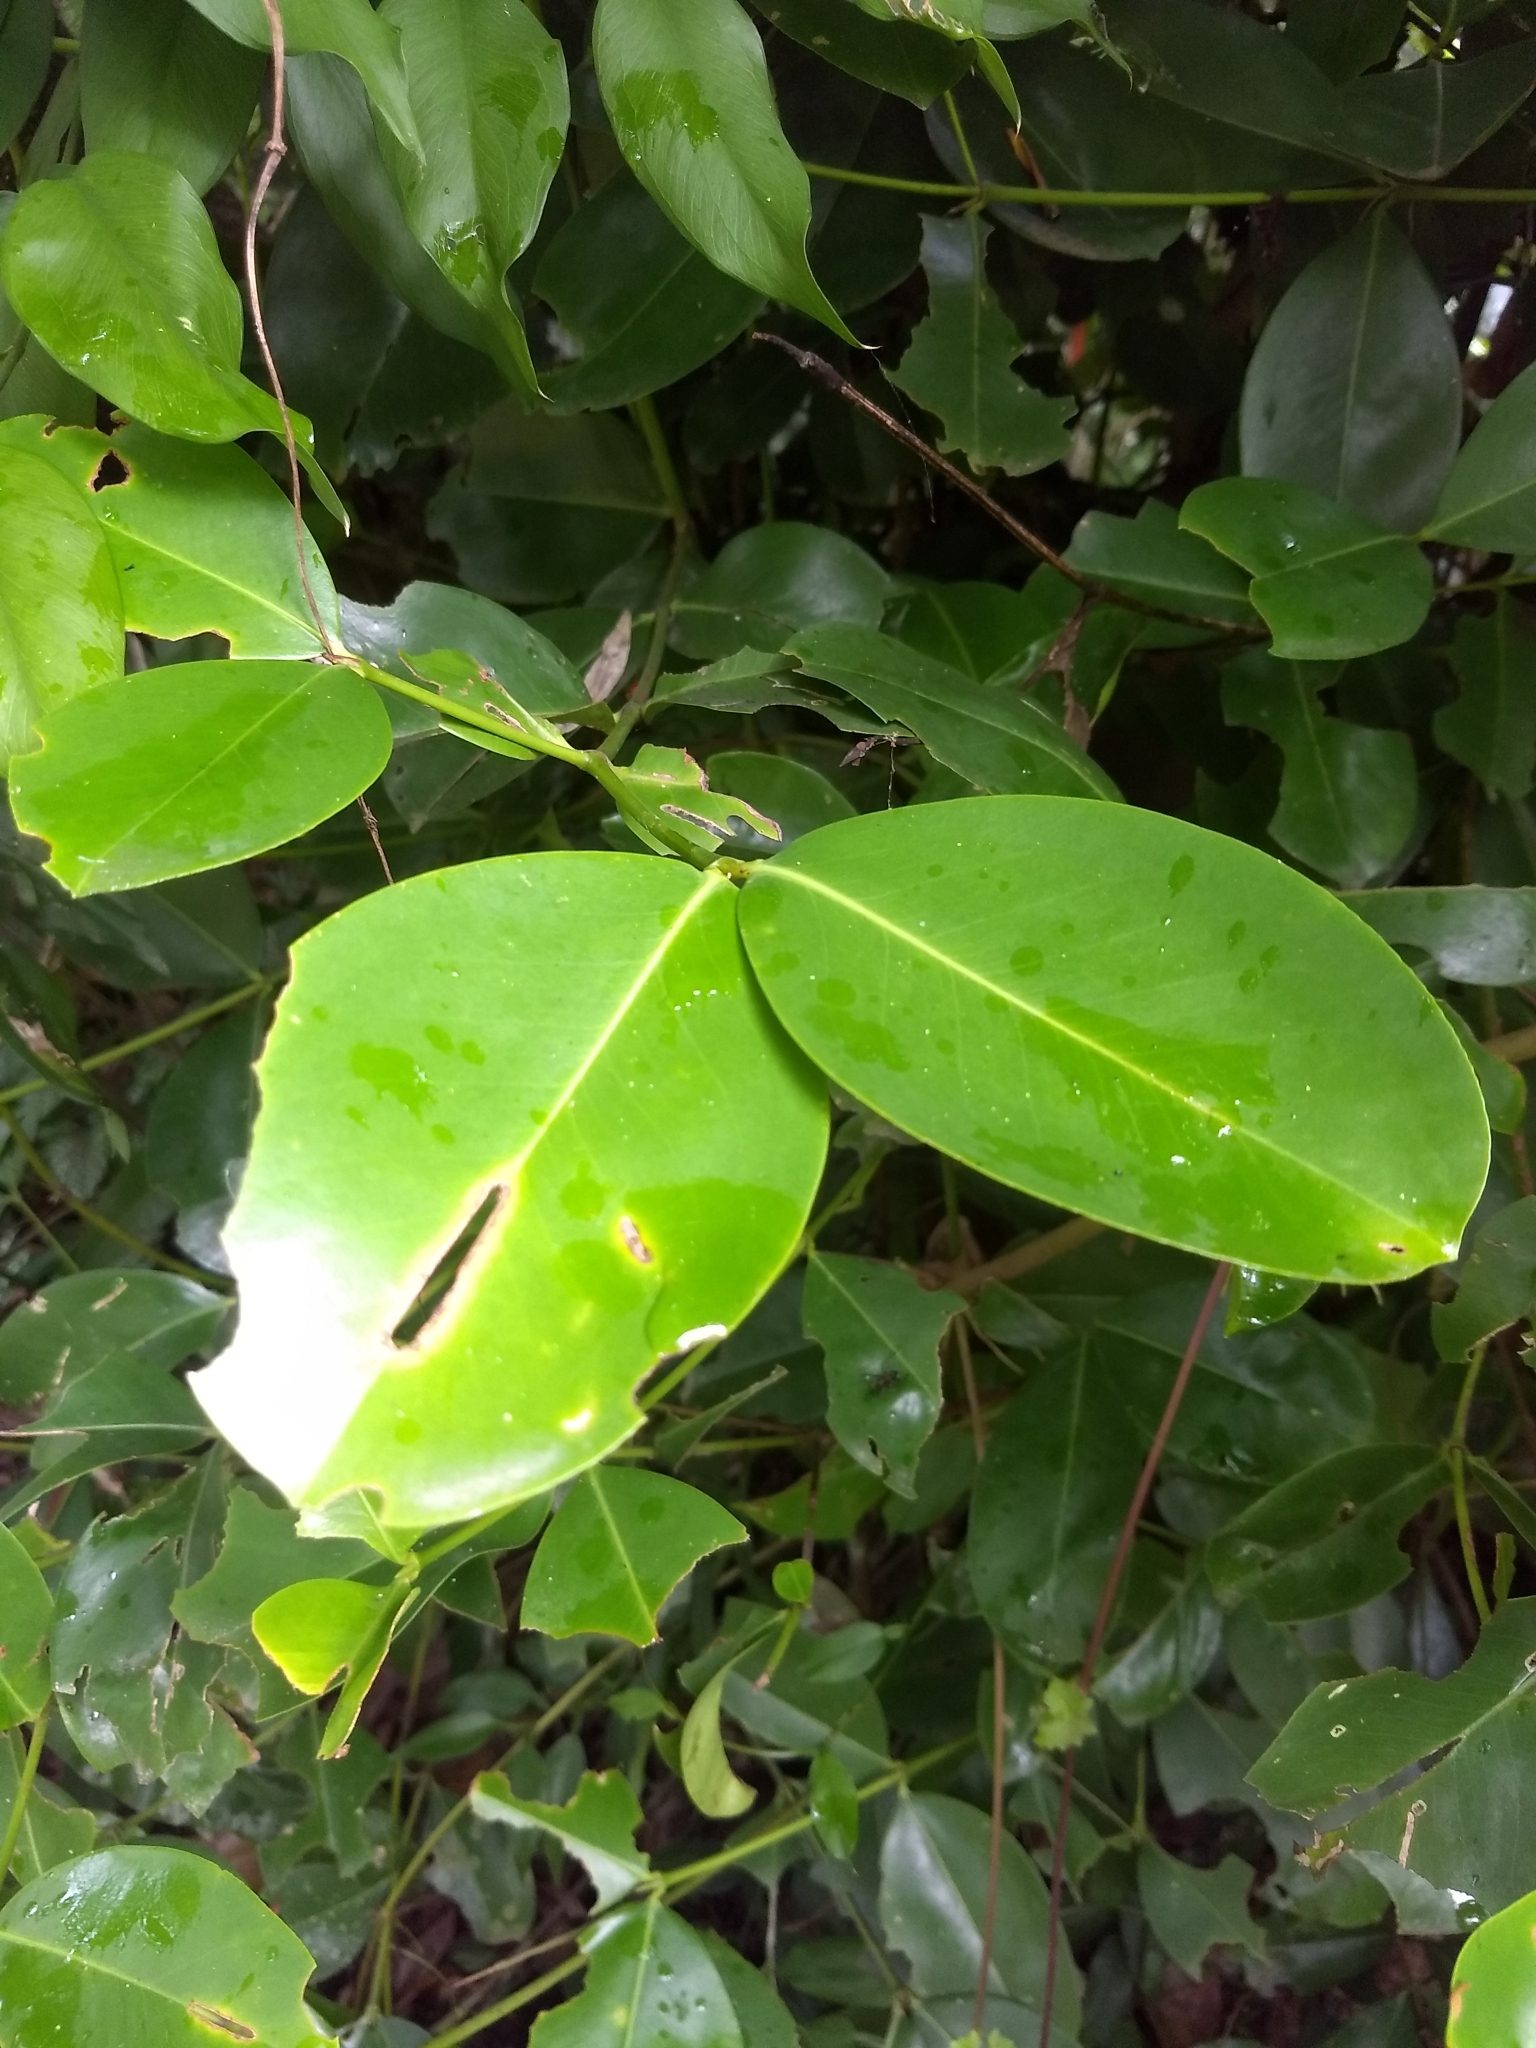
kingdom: Plantae
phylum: Tracheophyta
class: Magnoliopsida
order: Malpighiales
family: Rhizophoraceae
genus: Carallia
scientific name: Carallia brachiata
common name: Carallawood
